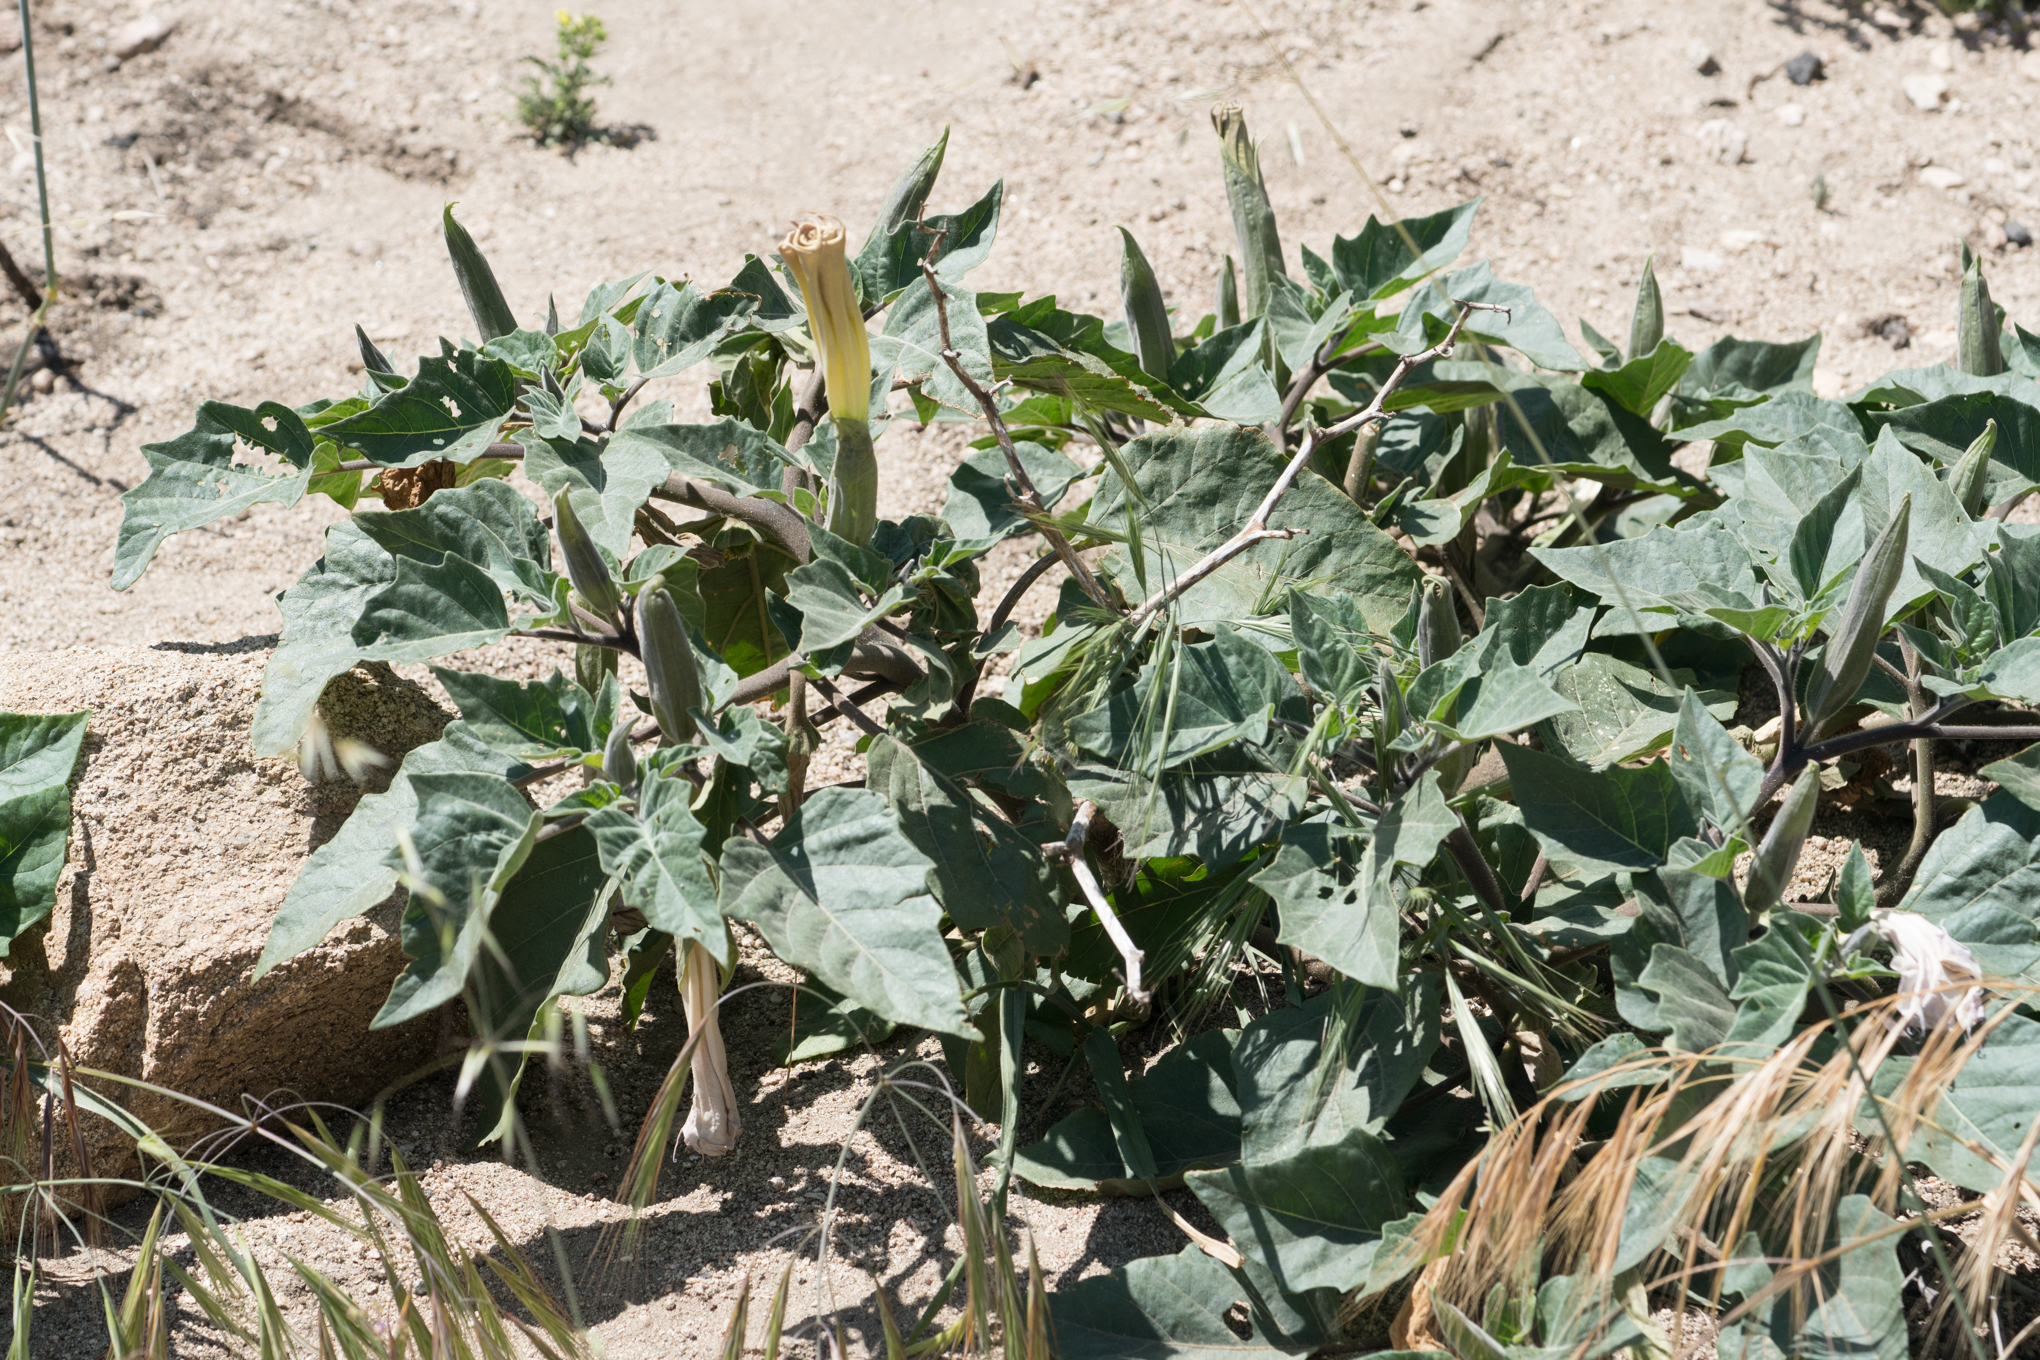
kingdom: Plantae
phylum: Tracheophyta
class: Magnoliopsida
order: Solanales
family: Solanaceae
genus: Datura
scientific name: Datura wrightii
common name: Sacred thorn-apple
